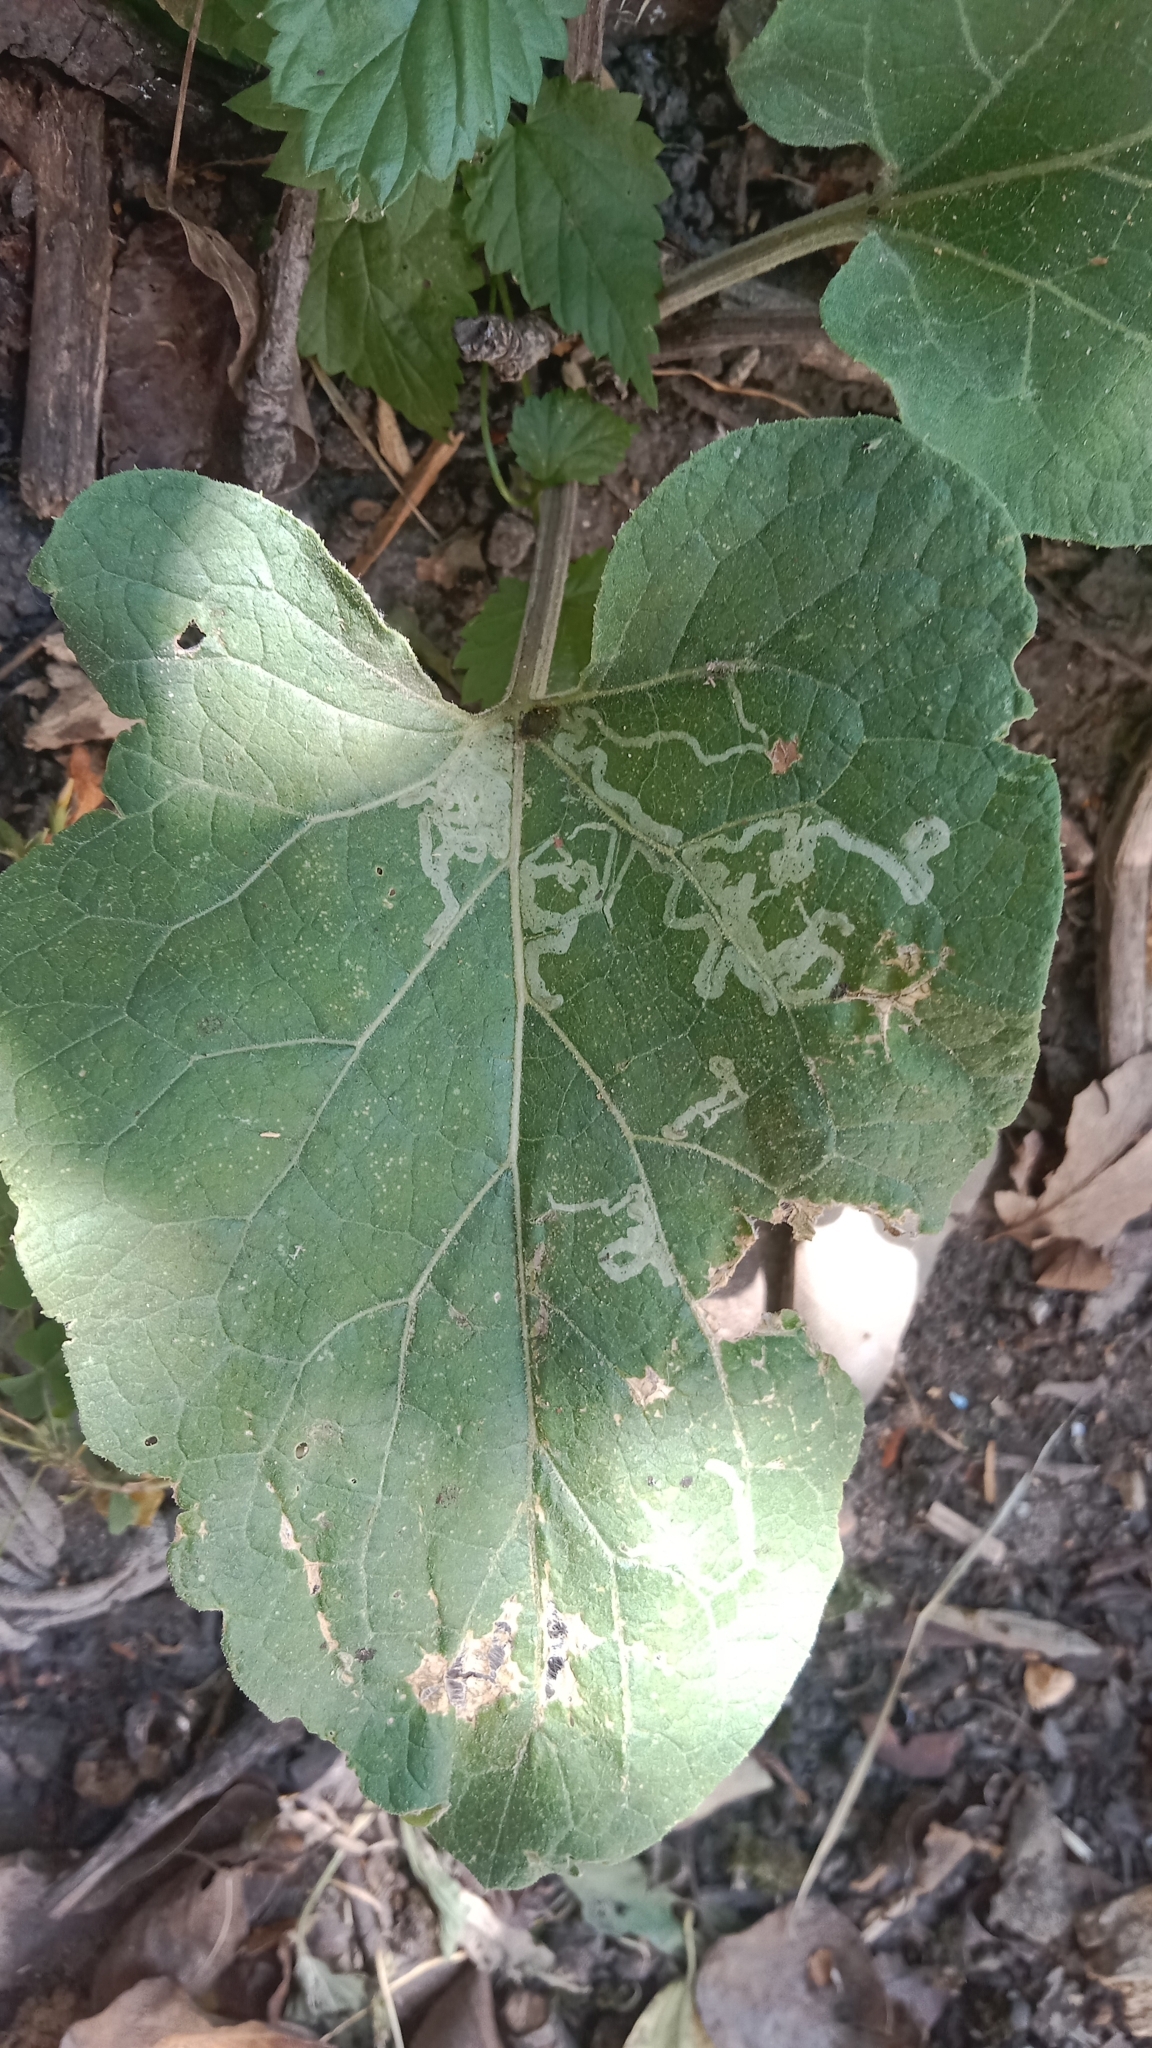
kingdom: Animalia
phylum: Arthropoda
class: Insecta
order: Diptera
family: Agromyzidae
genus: Phytomyza
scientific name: Phytomyza lappae
